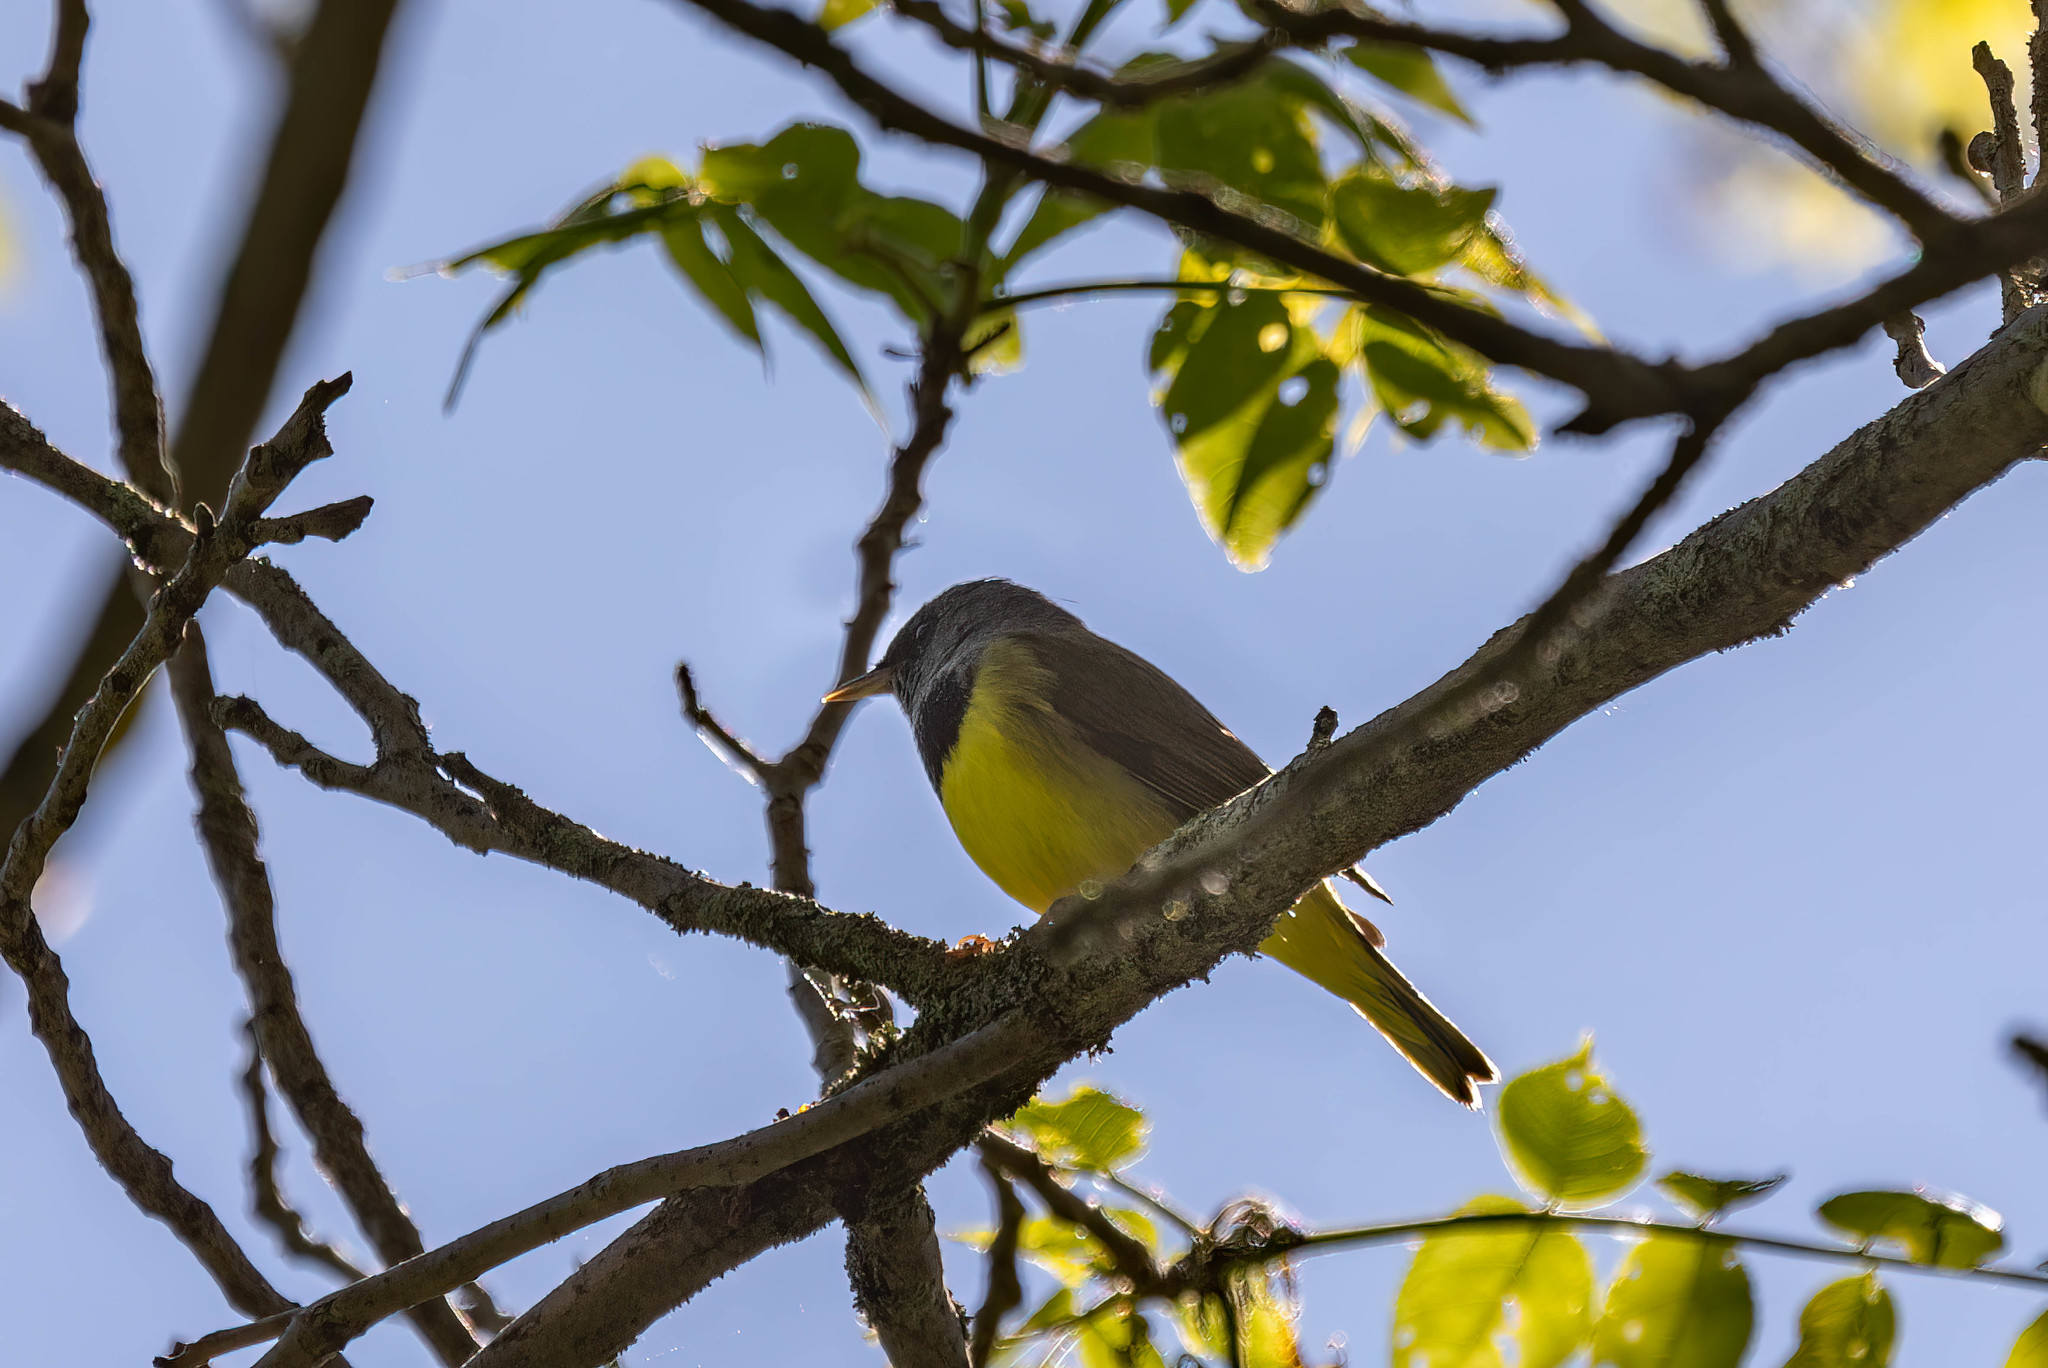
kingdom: Animalia
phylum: Chordata
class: Aves
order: Passeriformes
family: Parulidae
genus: Geothlypis
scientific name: Geothlypis philadelphia
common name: Mourning warbler
